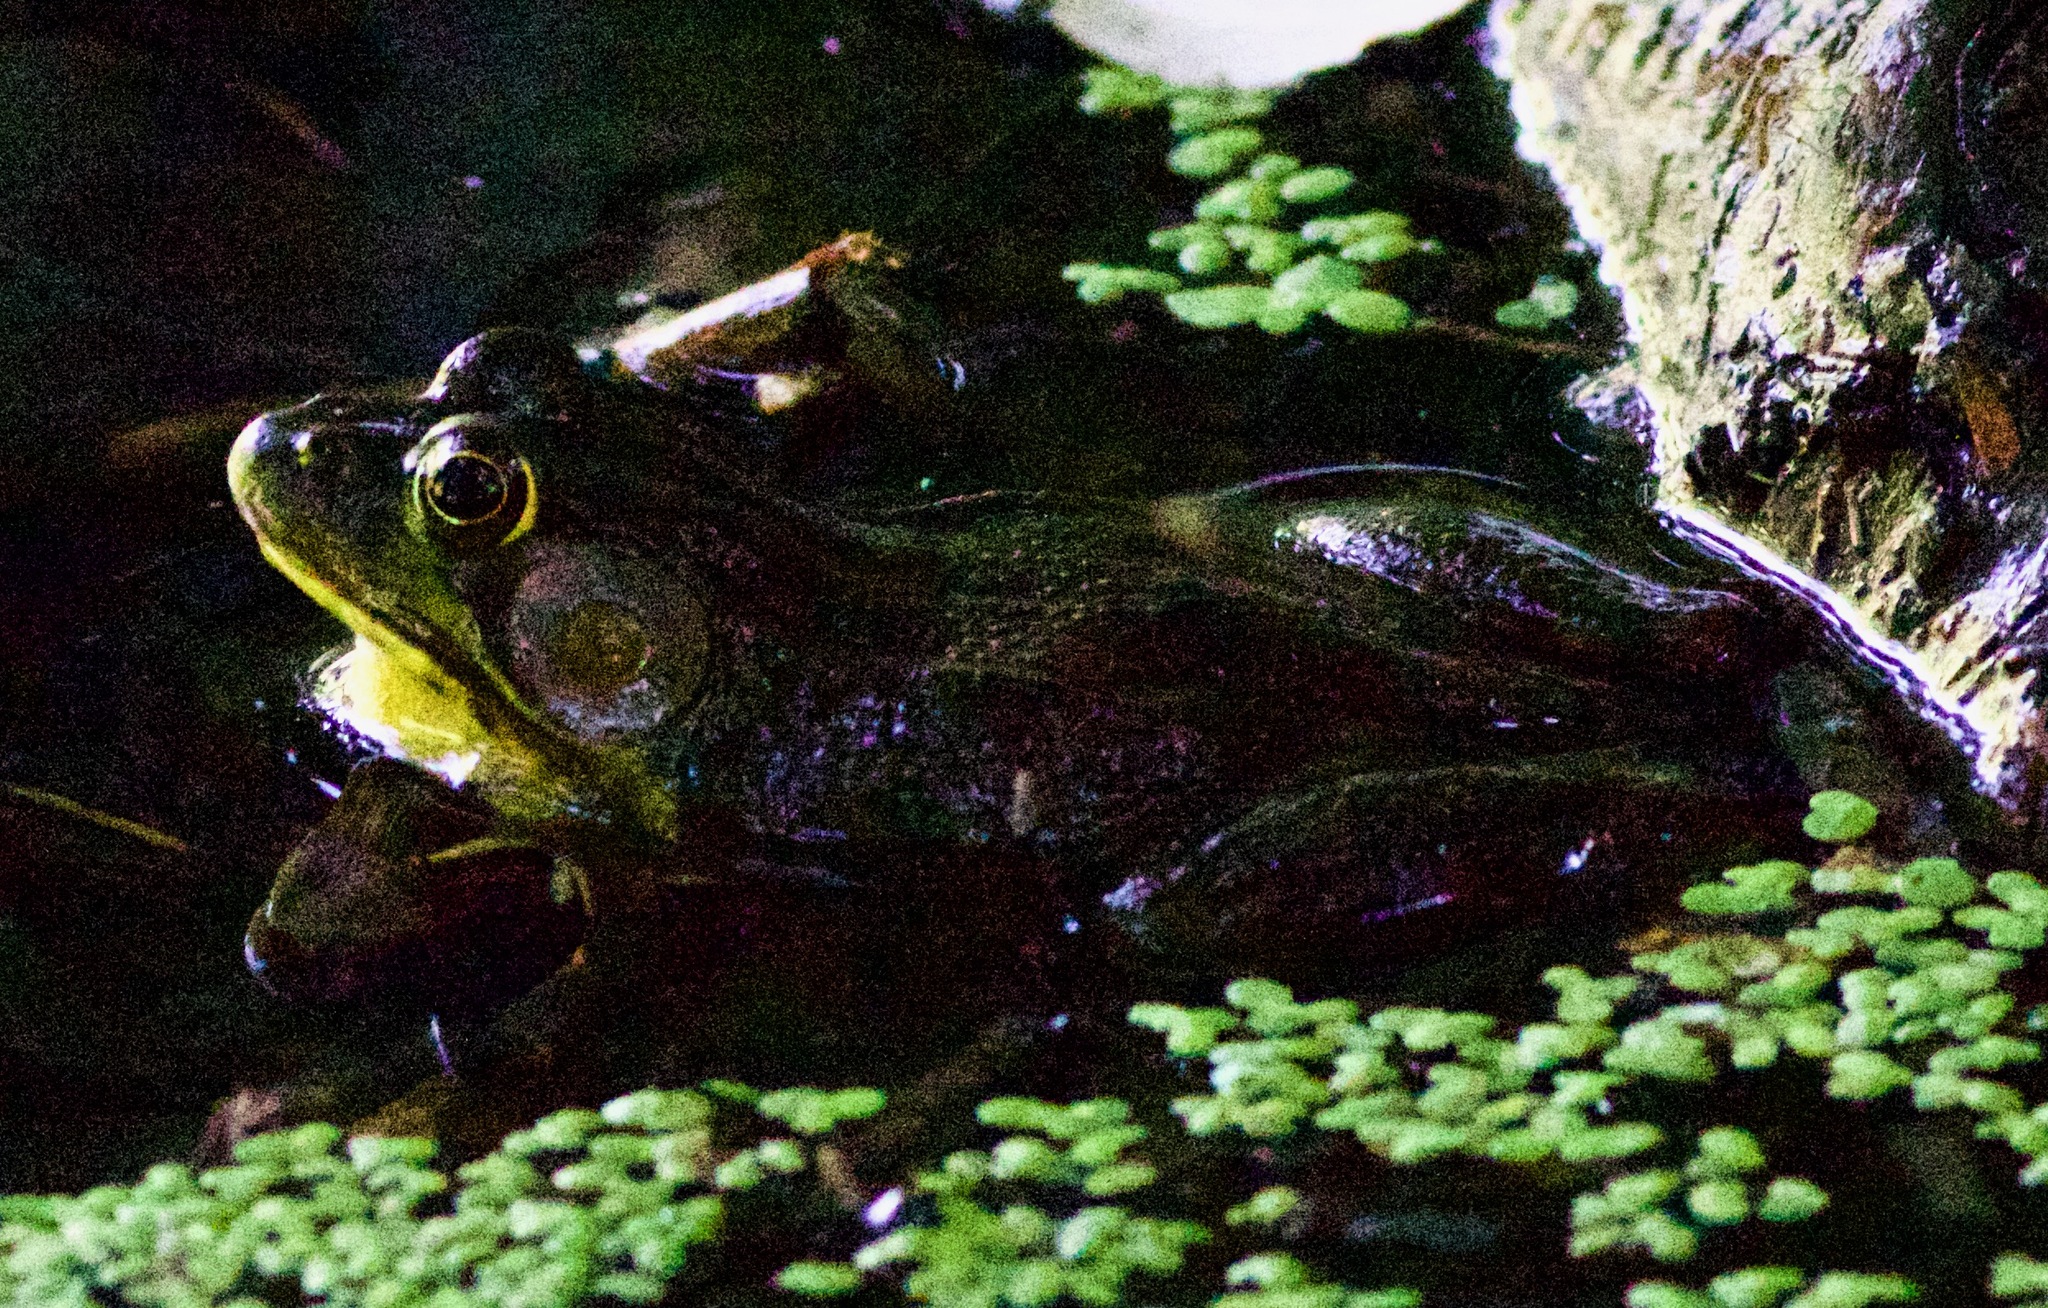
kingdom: Animalia
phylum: Chordata
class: Amphibia
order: Anura
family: Ranidae
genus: Lithobates
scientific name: Lithobates clamitans
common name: Green frog
